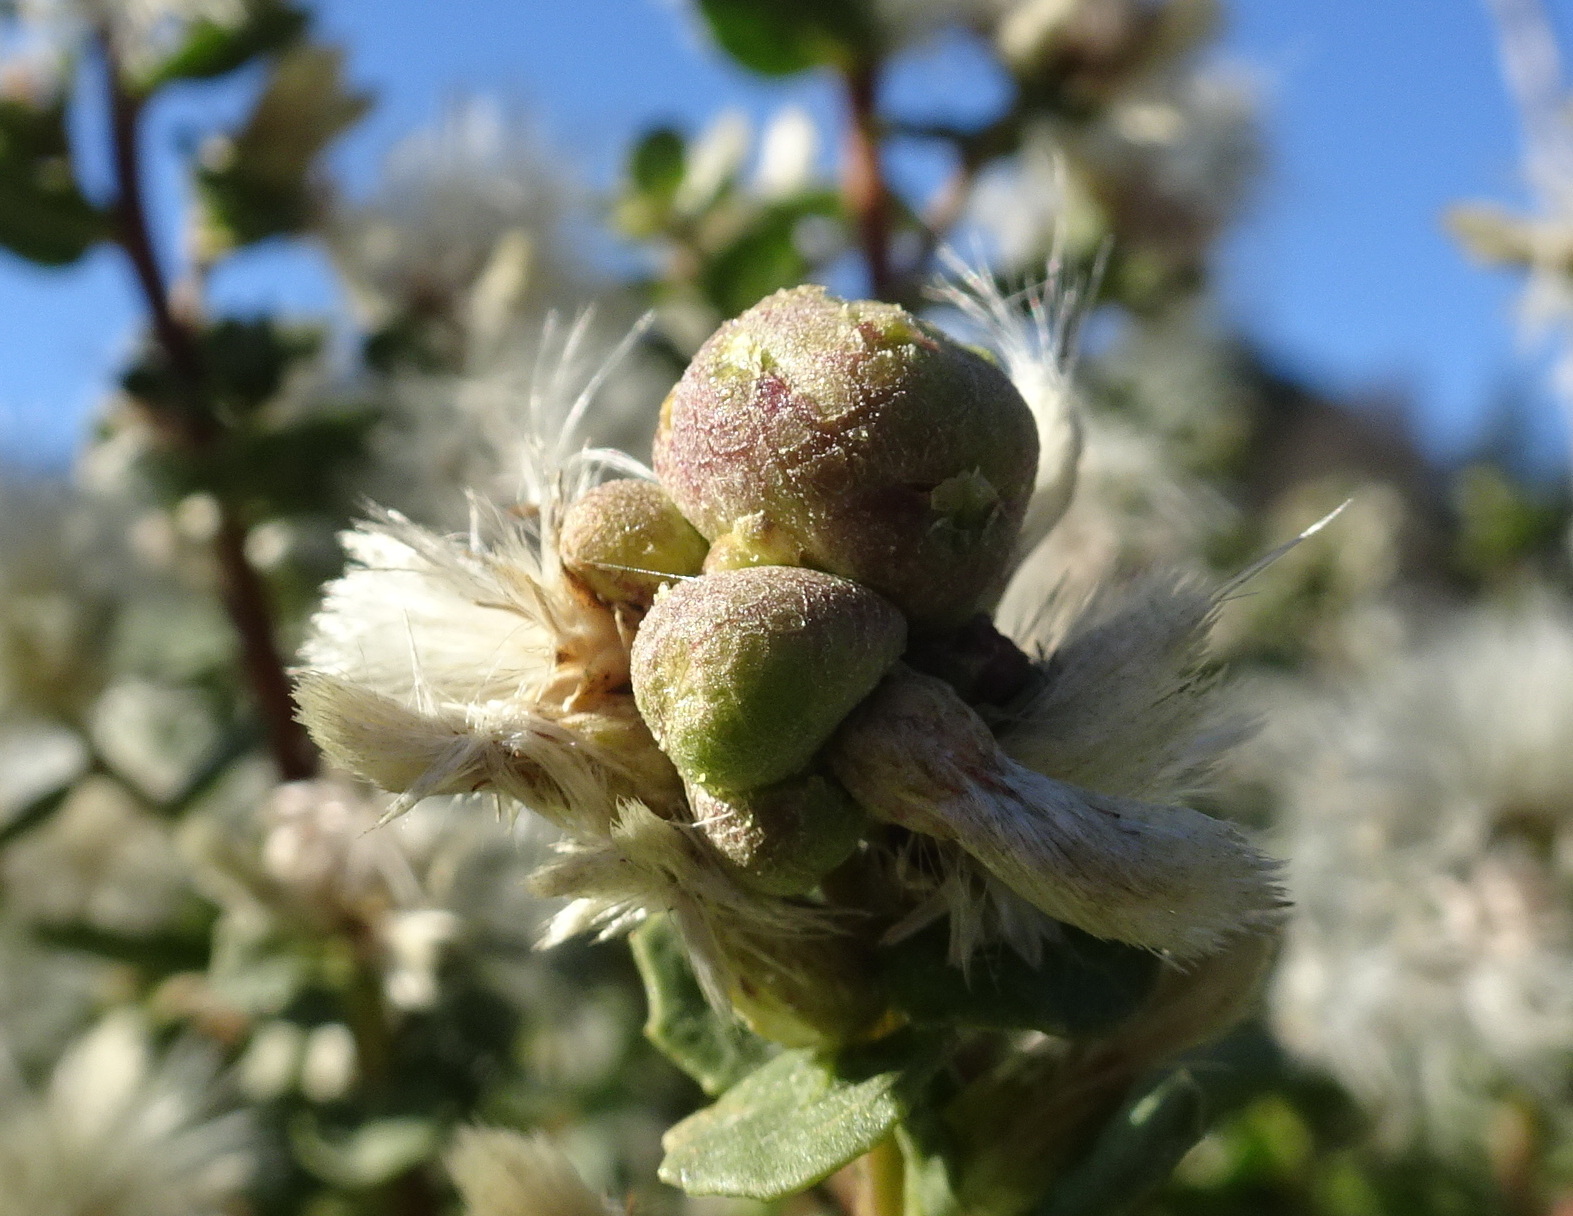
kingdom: Animalia
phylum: Arthropoda
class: Insecta
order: Diptera
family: Cecidomyiidae
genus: Rhopalomyia
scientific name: Rhopalomyia californica
